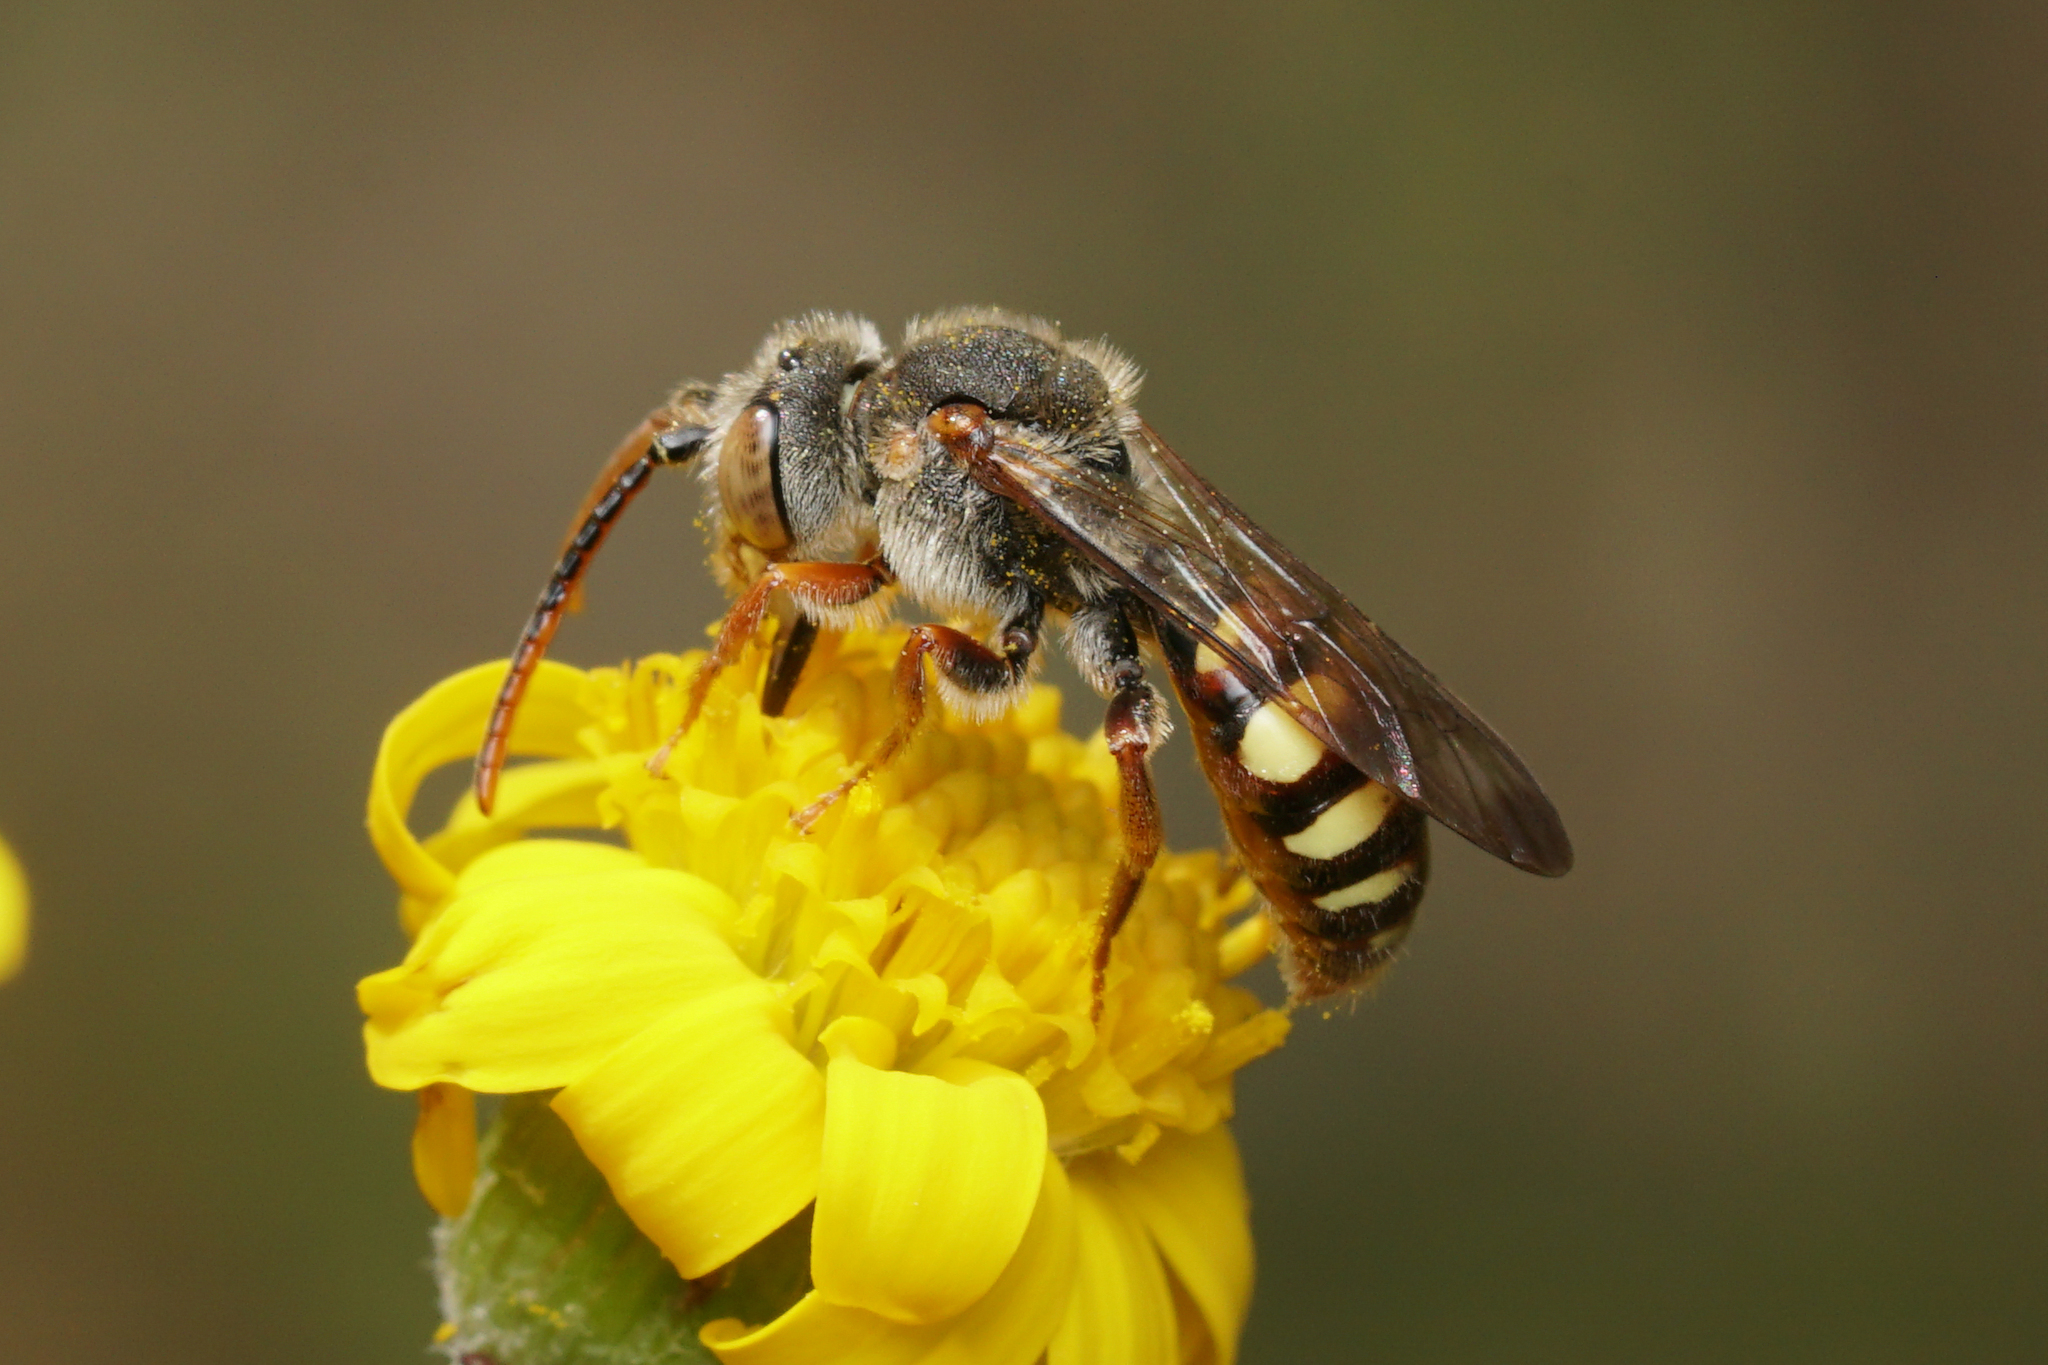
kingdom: Animalia
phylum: Arthropoda
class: Insecta
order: Hymenoptera
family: Apidae
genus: Nomada
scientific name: Nomada luteoloides
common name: Black-and-yellow nomad bee
